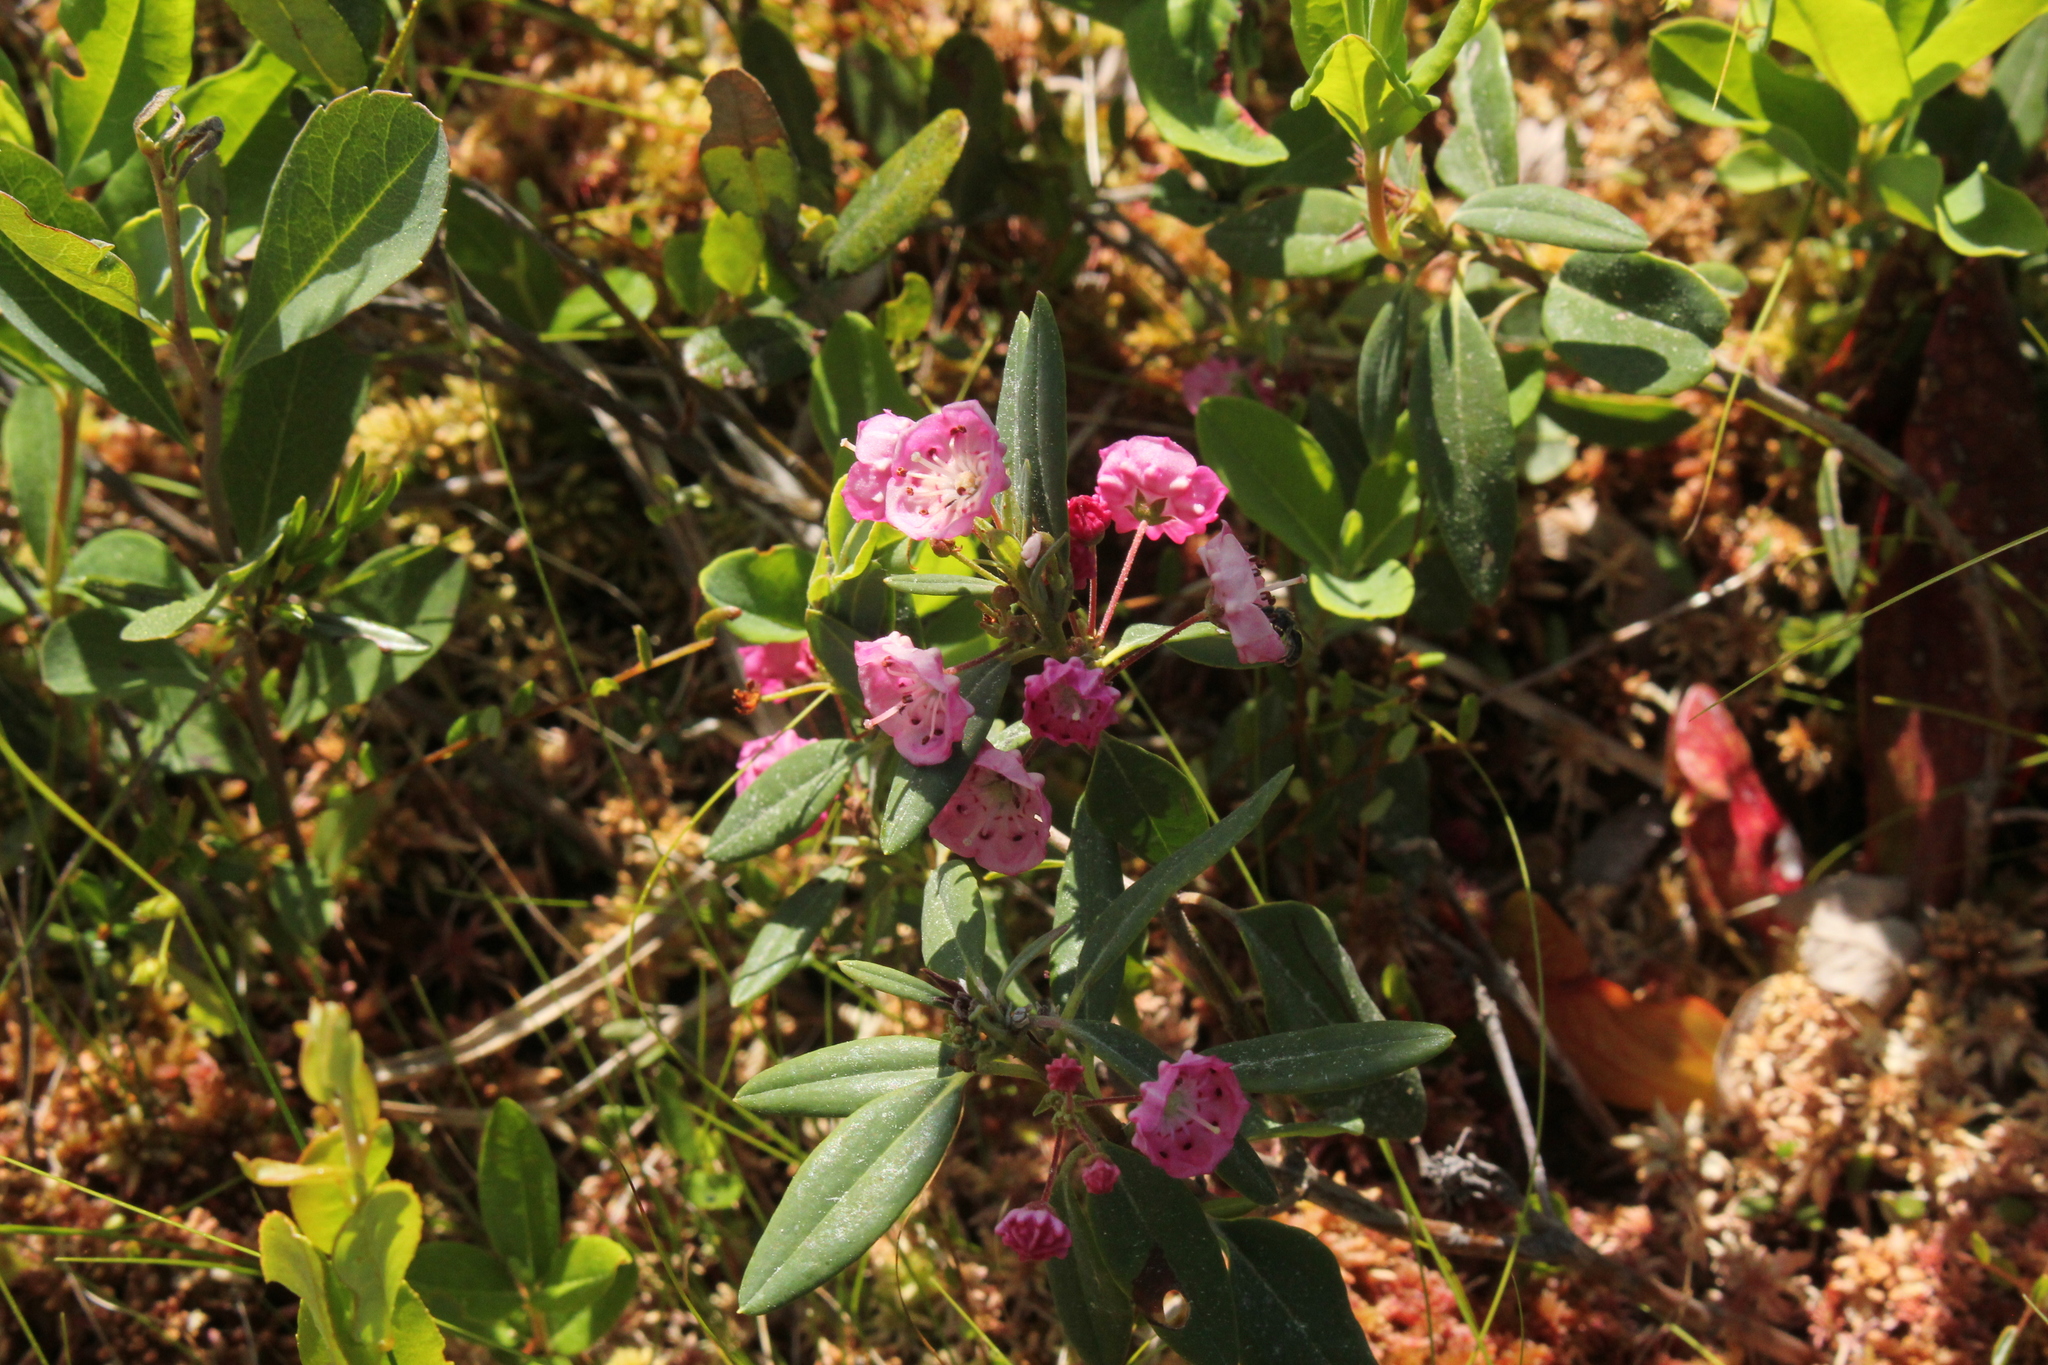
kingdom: Plantae
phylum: Tracheophyta
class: Magnoliopsida
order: Ericales
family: Ericaceae
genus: Kalmia
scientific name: Kalmia angustifolia
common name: Sheep-laurel
